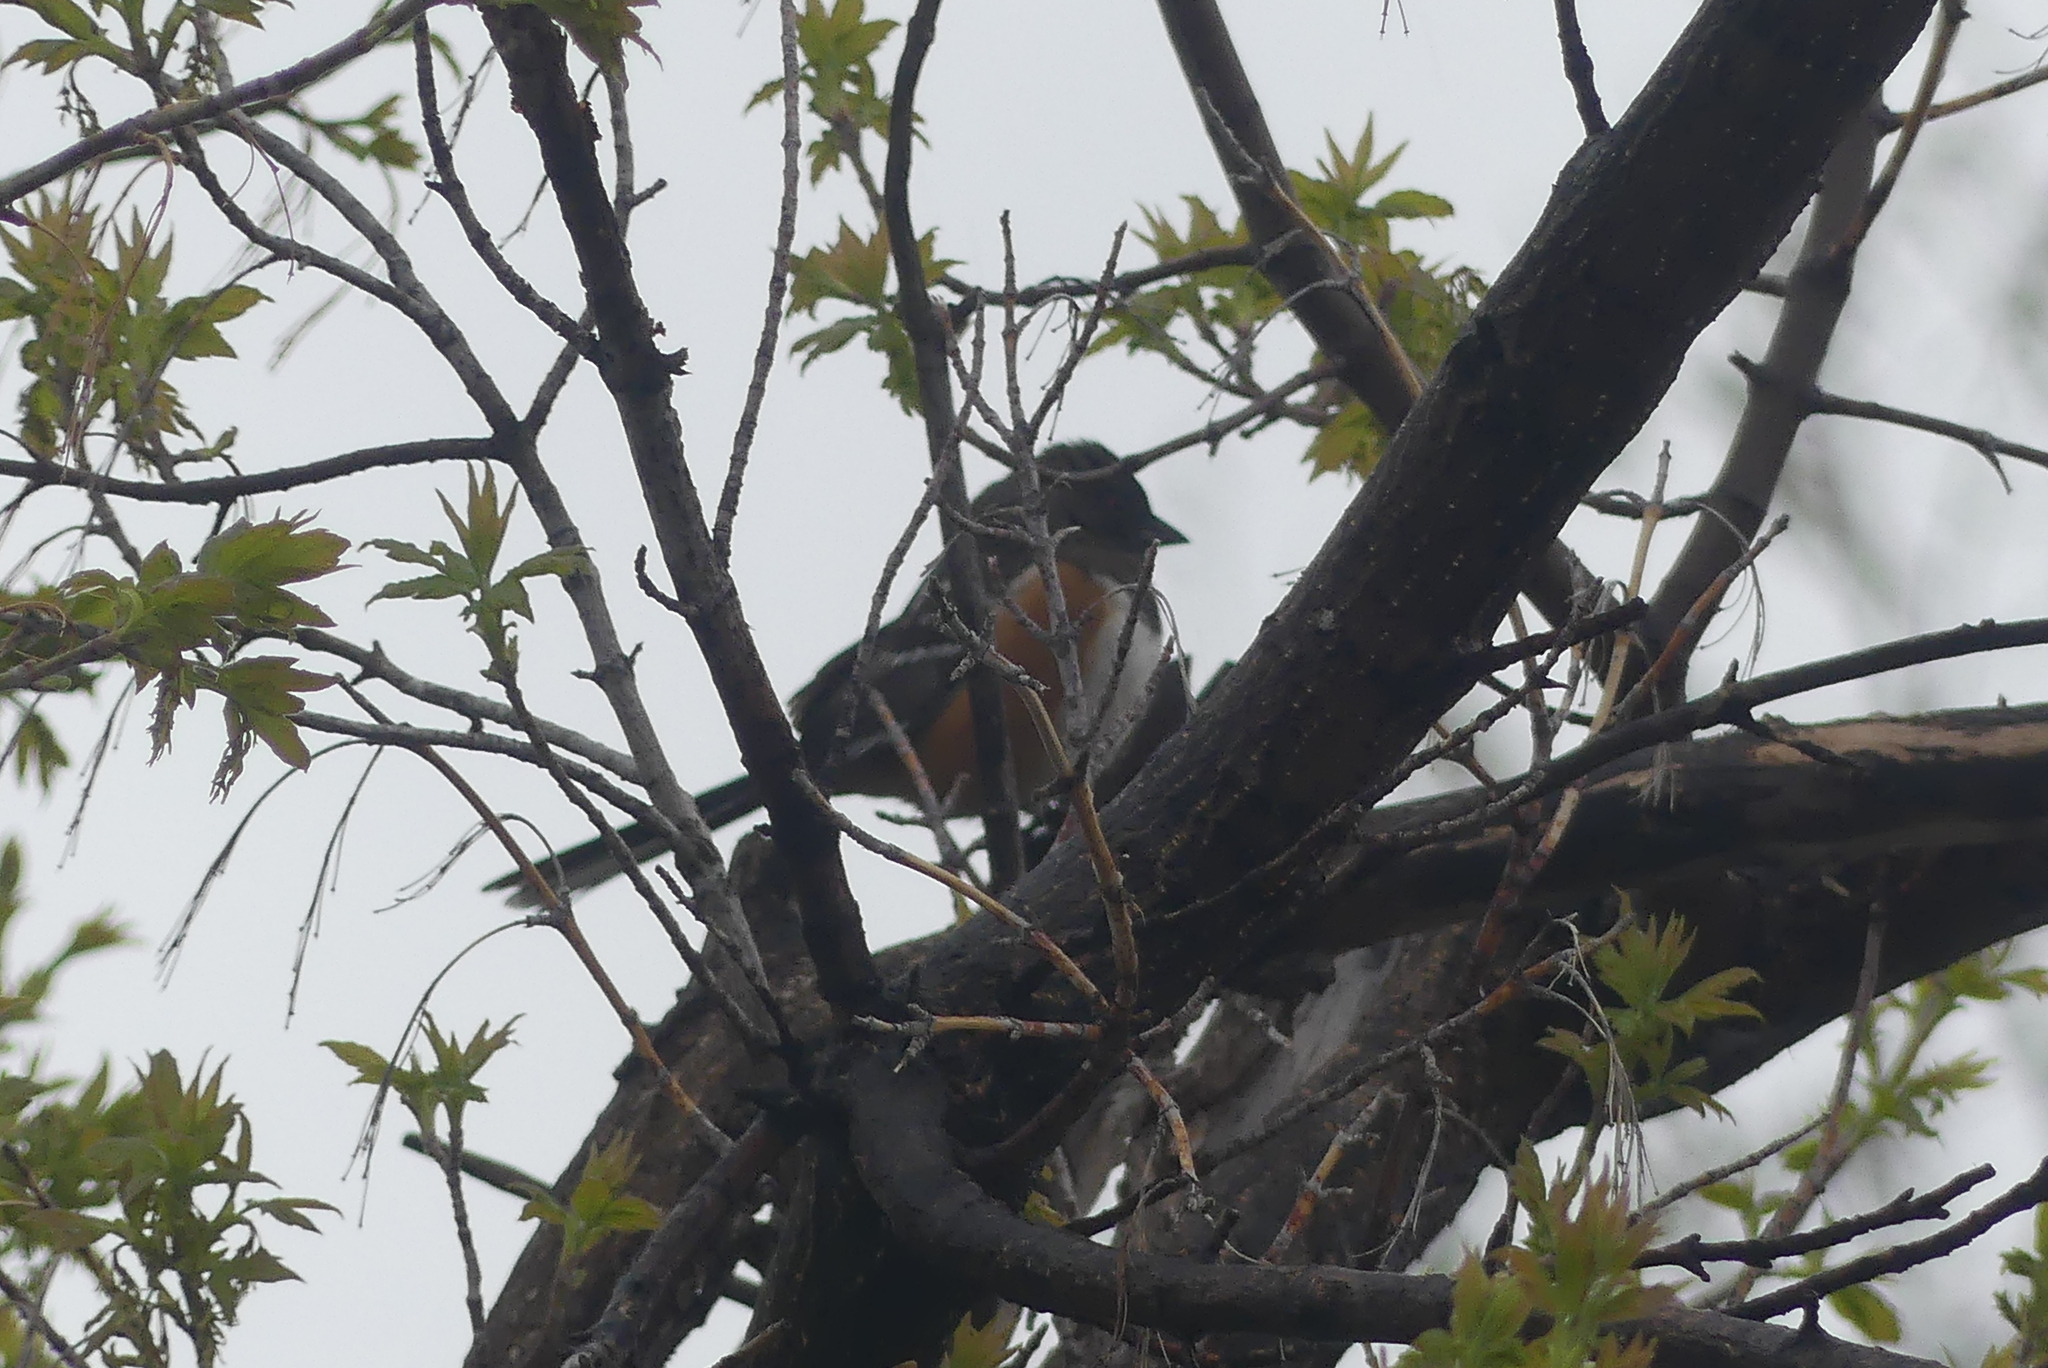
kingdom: Animalia
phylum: Chordata
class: Aves
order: Passeriformes
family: Passerellidae
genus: Pipilo
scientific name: Pipilo maculatus
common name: Spotted towhee
